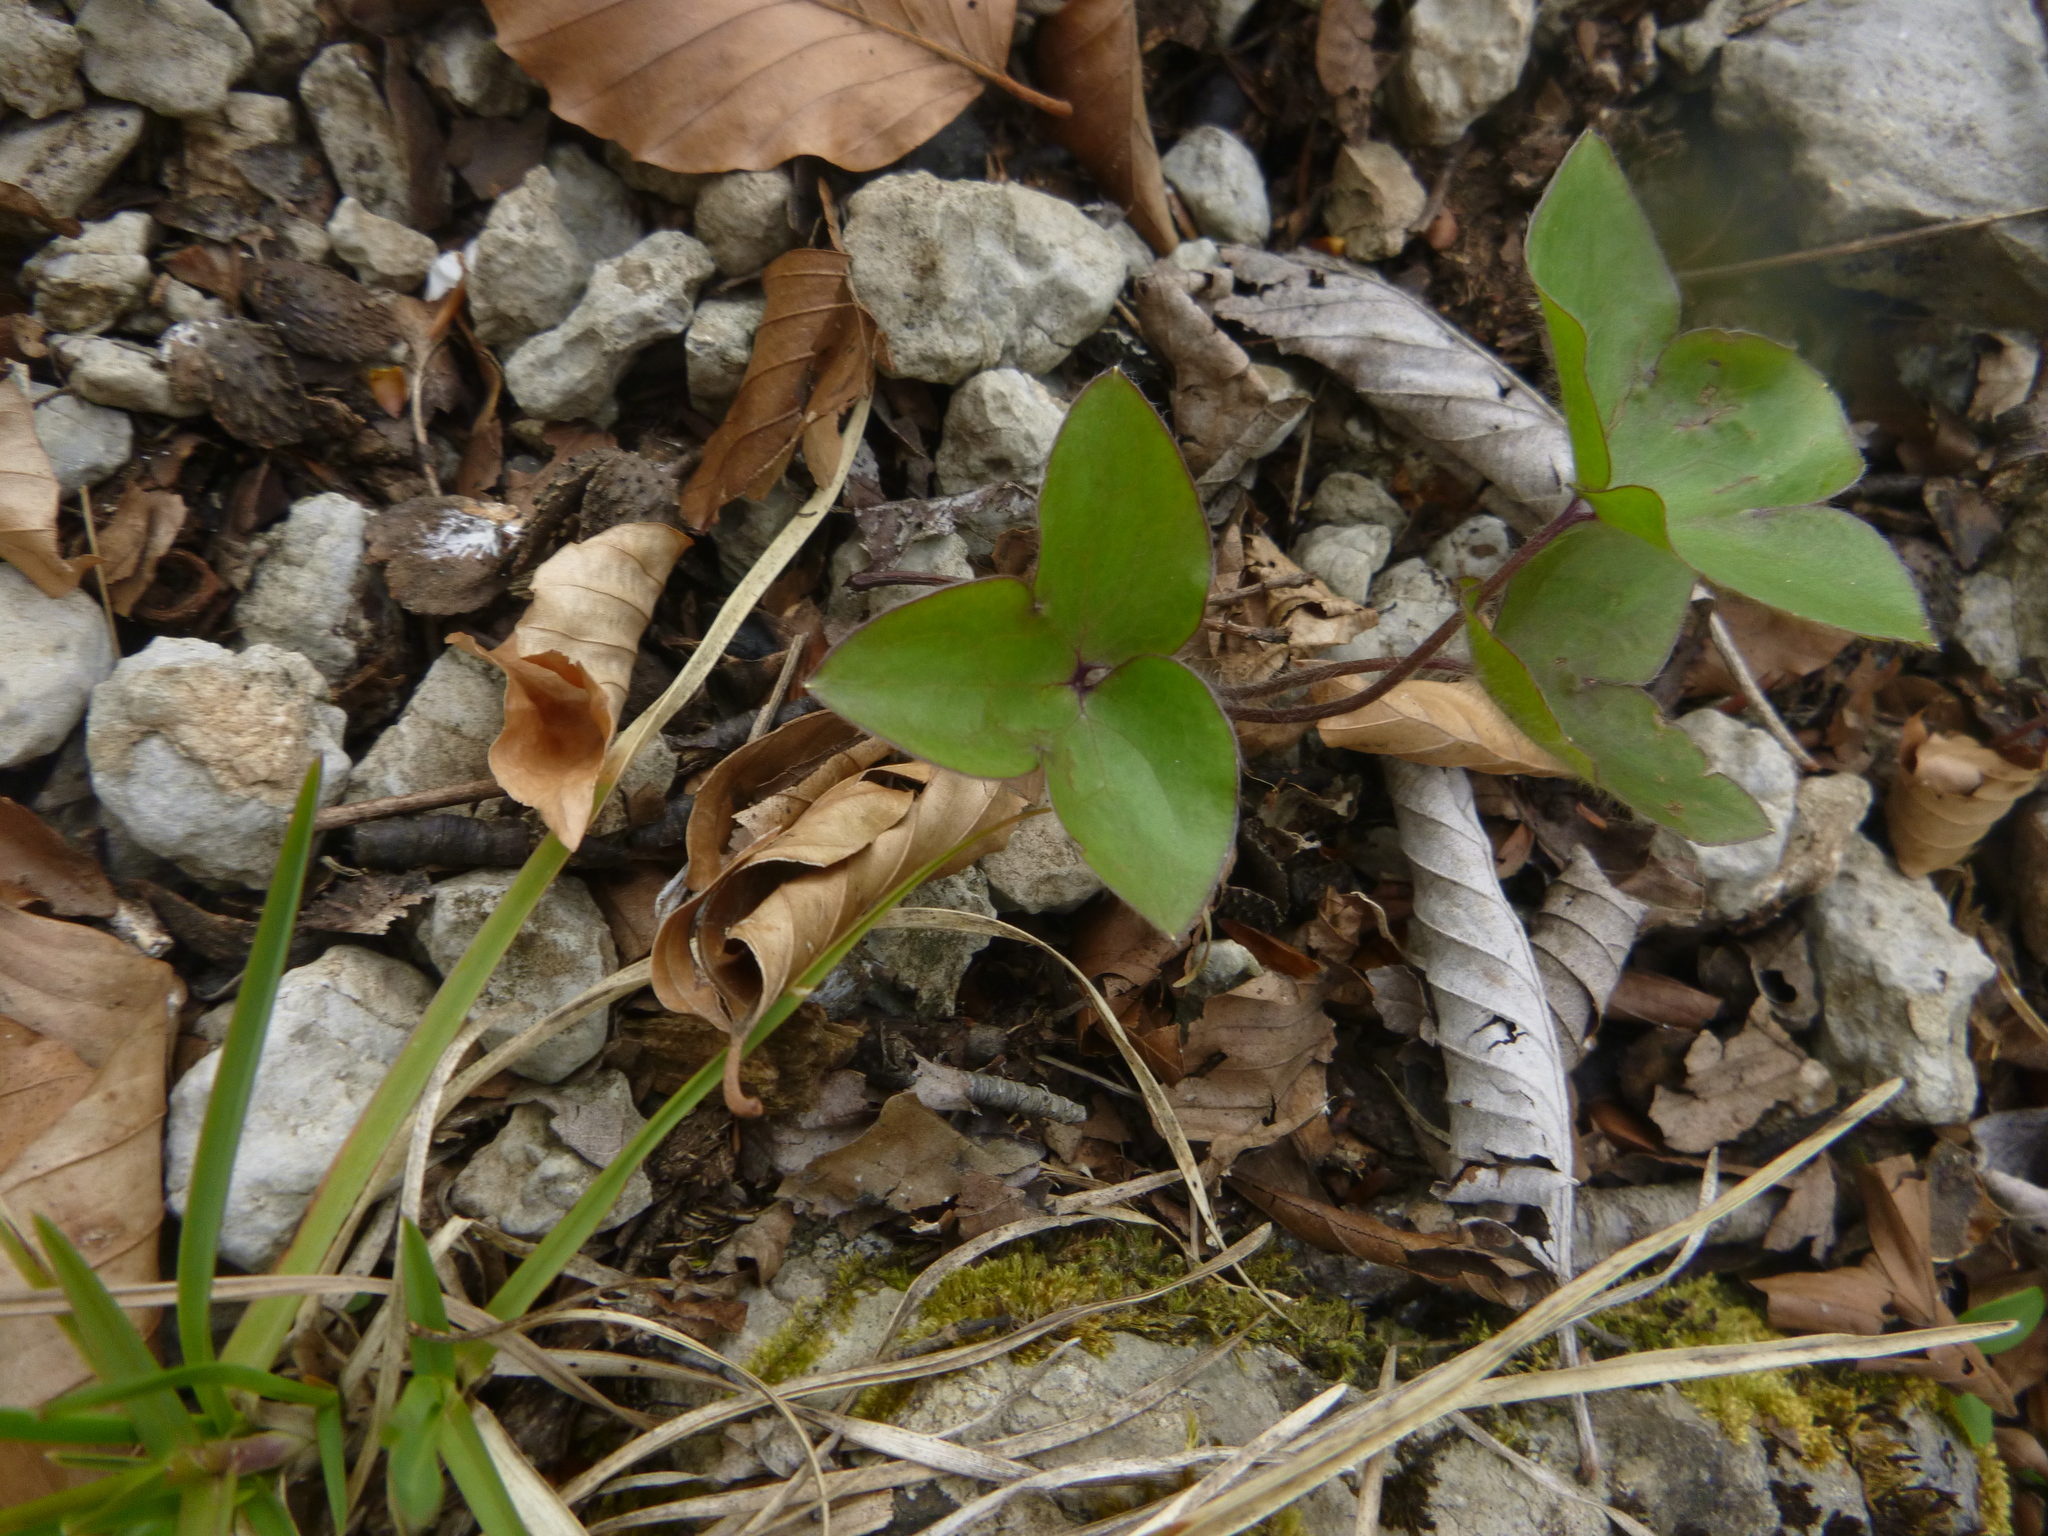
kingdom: Plantae
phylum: Tracheophyta
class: Magnoliopsida
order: Ranunculales
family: Ranunculaceae
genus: Hepatica
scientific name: Hepatica nobilis
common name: Liverleaf
